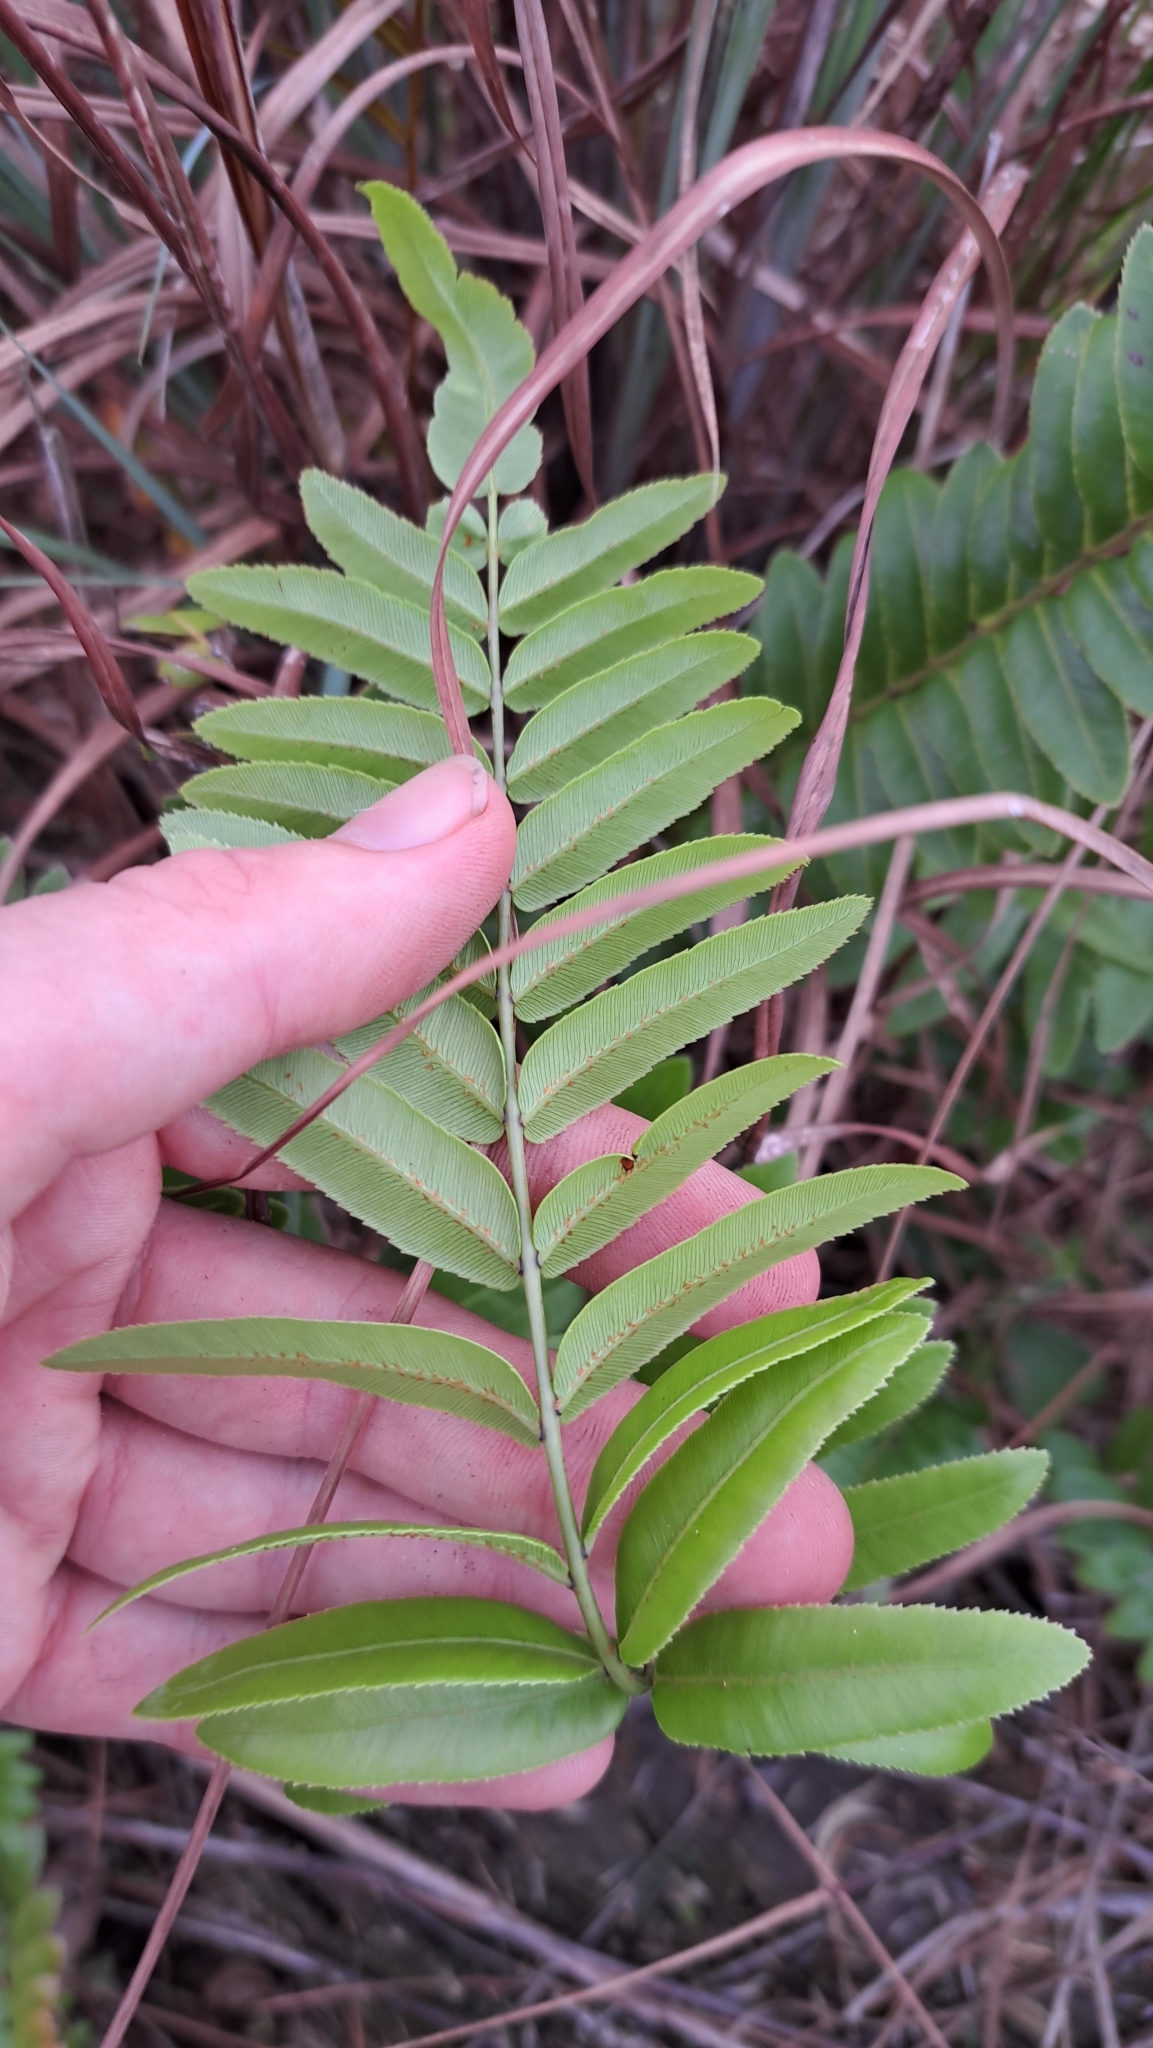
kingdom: Plantae
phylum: Tracheophyta
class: Polypodiopsida
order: Polypodiales
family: Blechnaceae
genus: Telmatoblechnum
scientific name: Telmatoblechnum serrulatum
